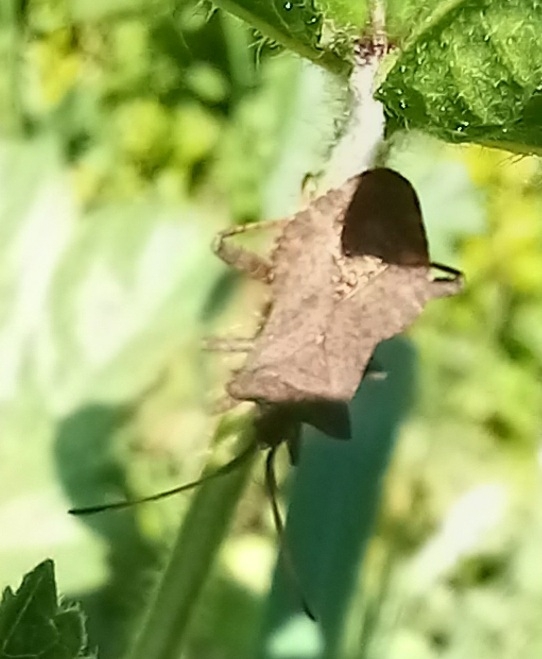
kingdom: Animalia
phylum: Arthropoda
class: Insecta
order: Hemiptera
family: Coreidae
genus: Coreus
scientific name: Coreus marginatus
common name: Dock bug
